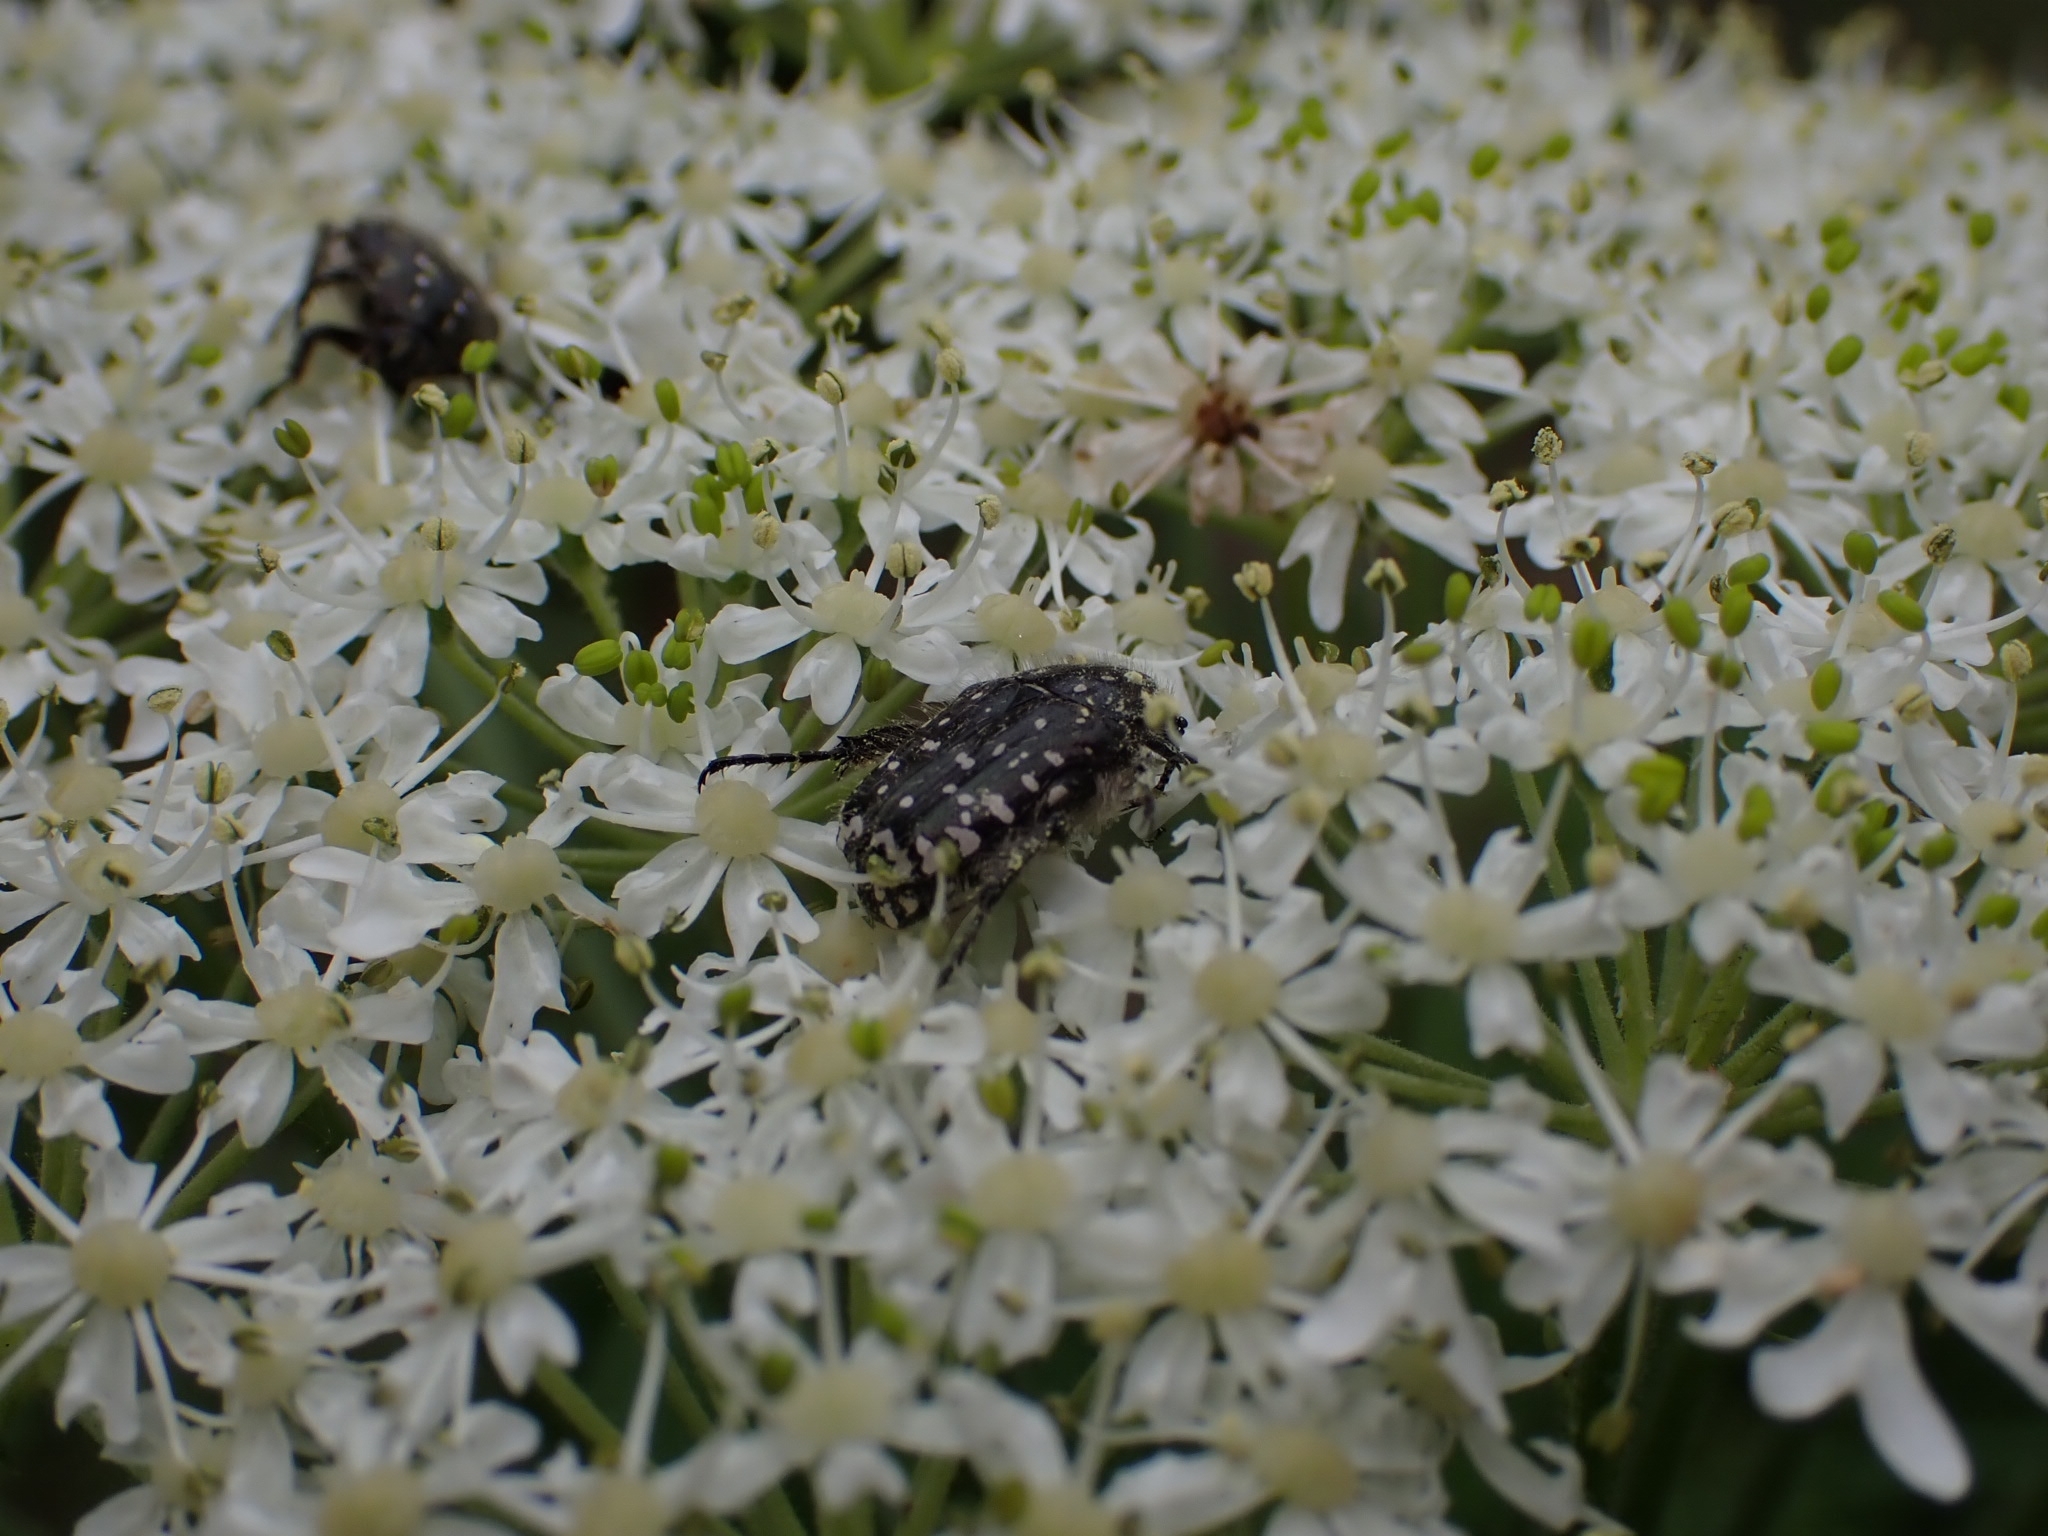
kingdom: Animalia
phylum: Arthropoda
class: Insecta
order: Coleoptera
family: Scarabaeidae
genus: Oxythyrea
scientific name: Oxythyrea funesta
